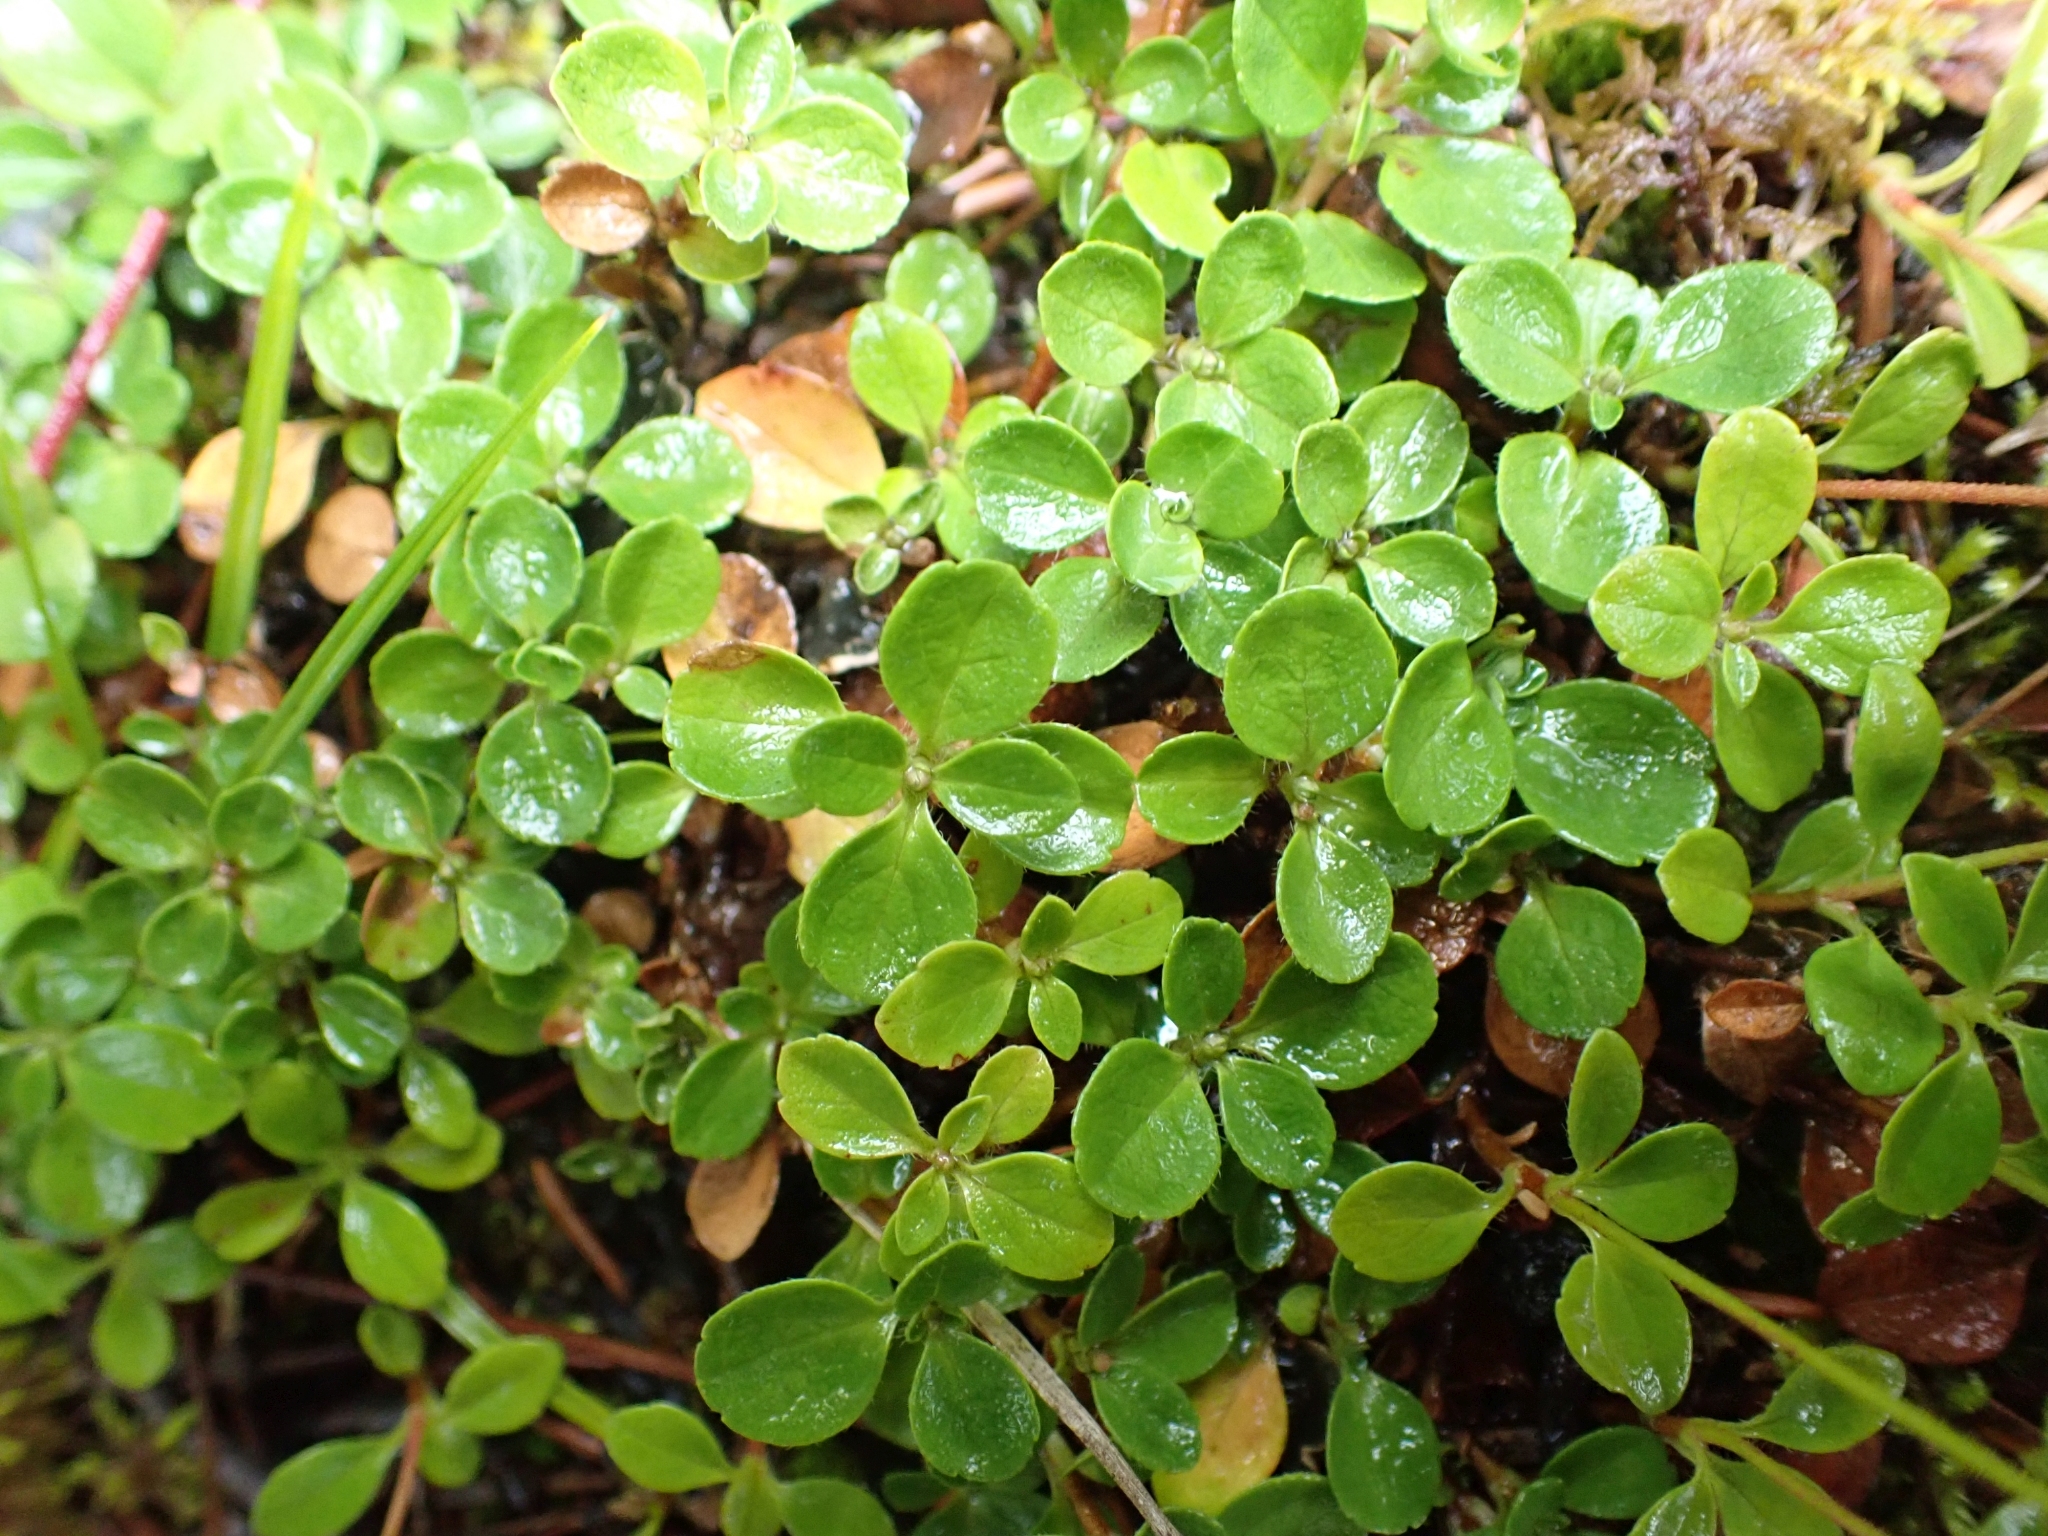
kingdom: Plantae
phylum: Tracheophyta
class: Magnoliopsida
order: Dipsacales
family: Caprifoliaceae
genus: Linnaea
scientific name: Linnaea borealis
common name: Twinflower
